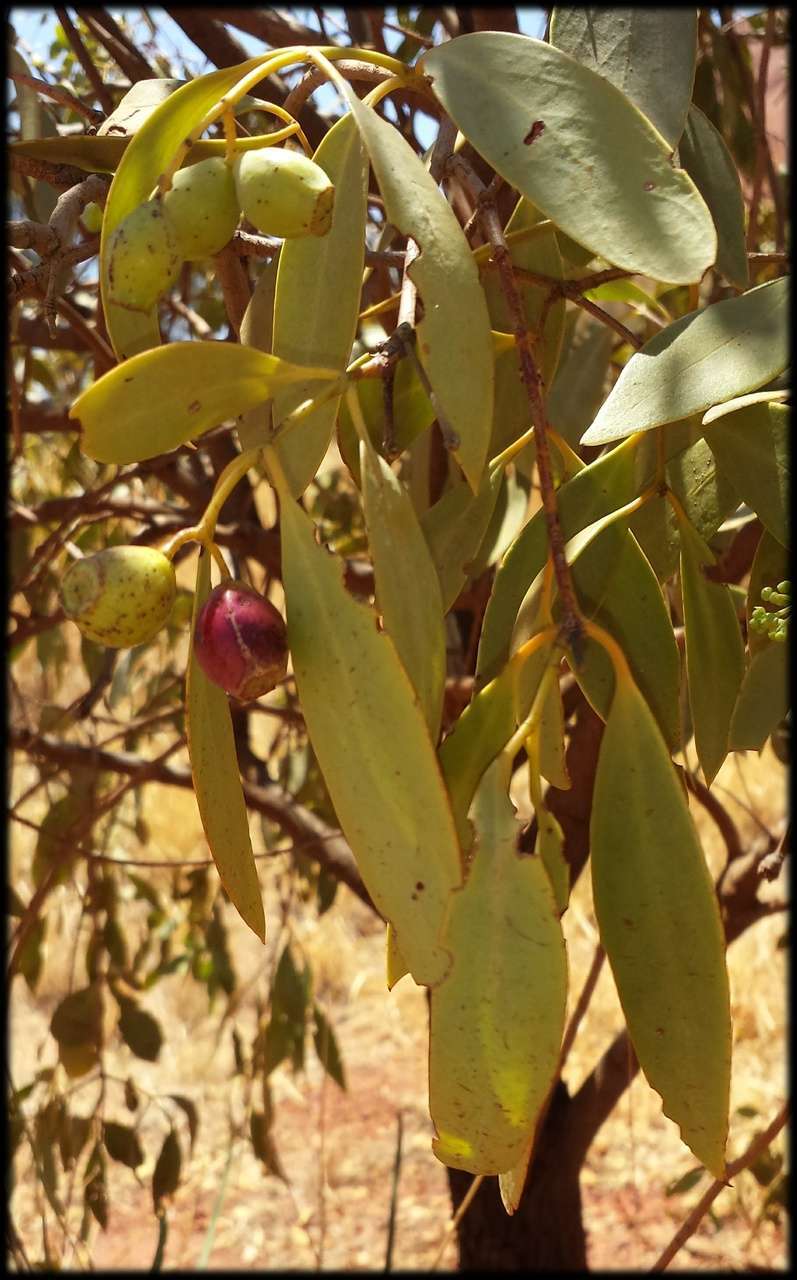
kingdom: Plantae
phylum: Tracheophyta
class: Magnoliopsida
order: Santalales
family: Santalaceae
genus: Santalum
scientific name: Santalum lanceolatum
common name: Ankwerley
